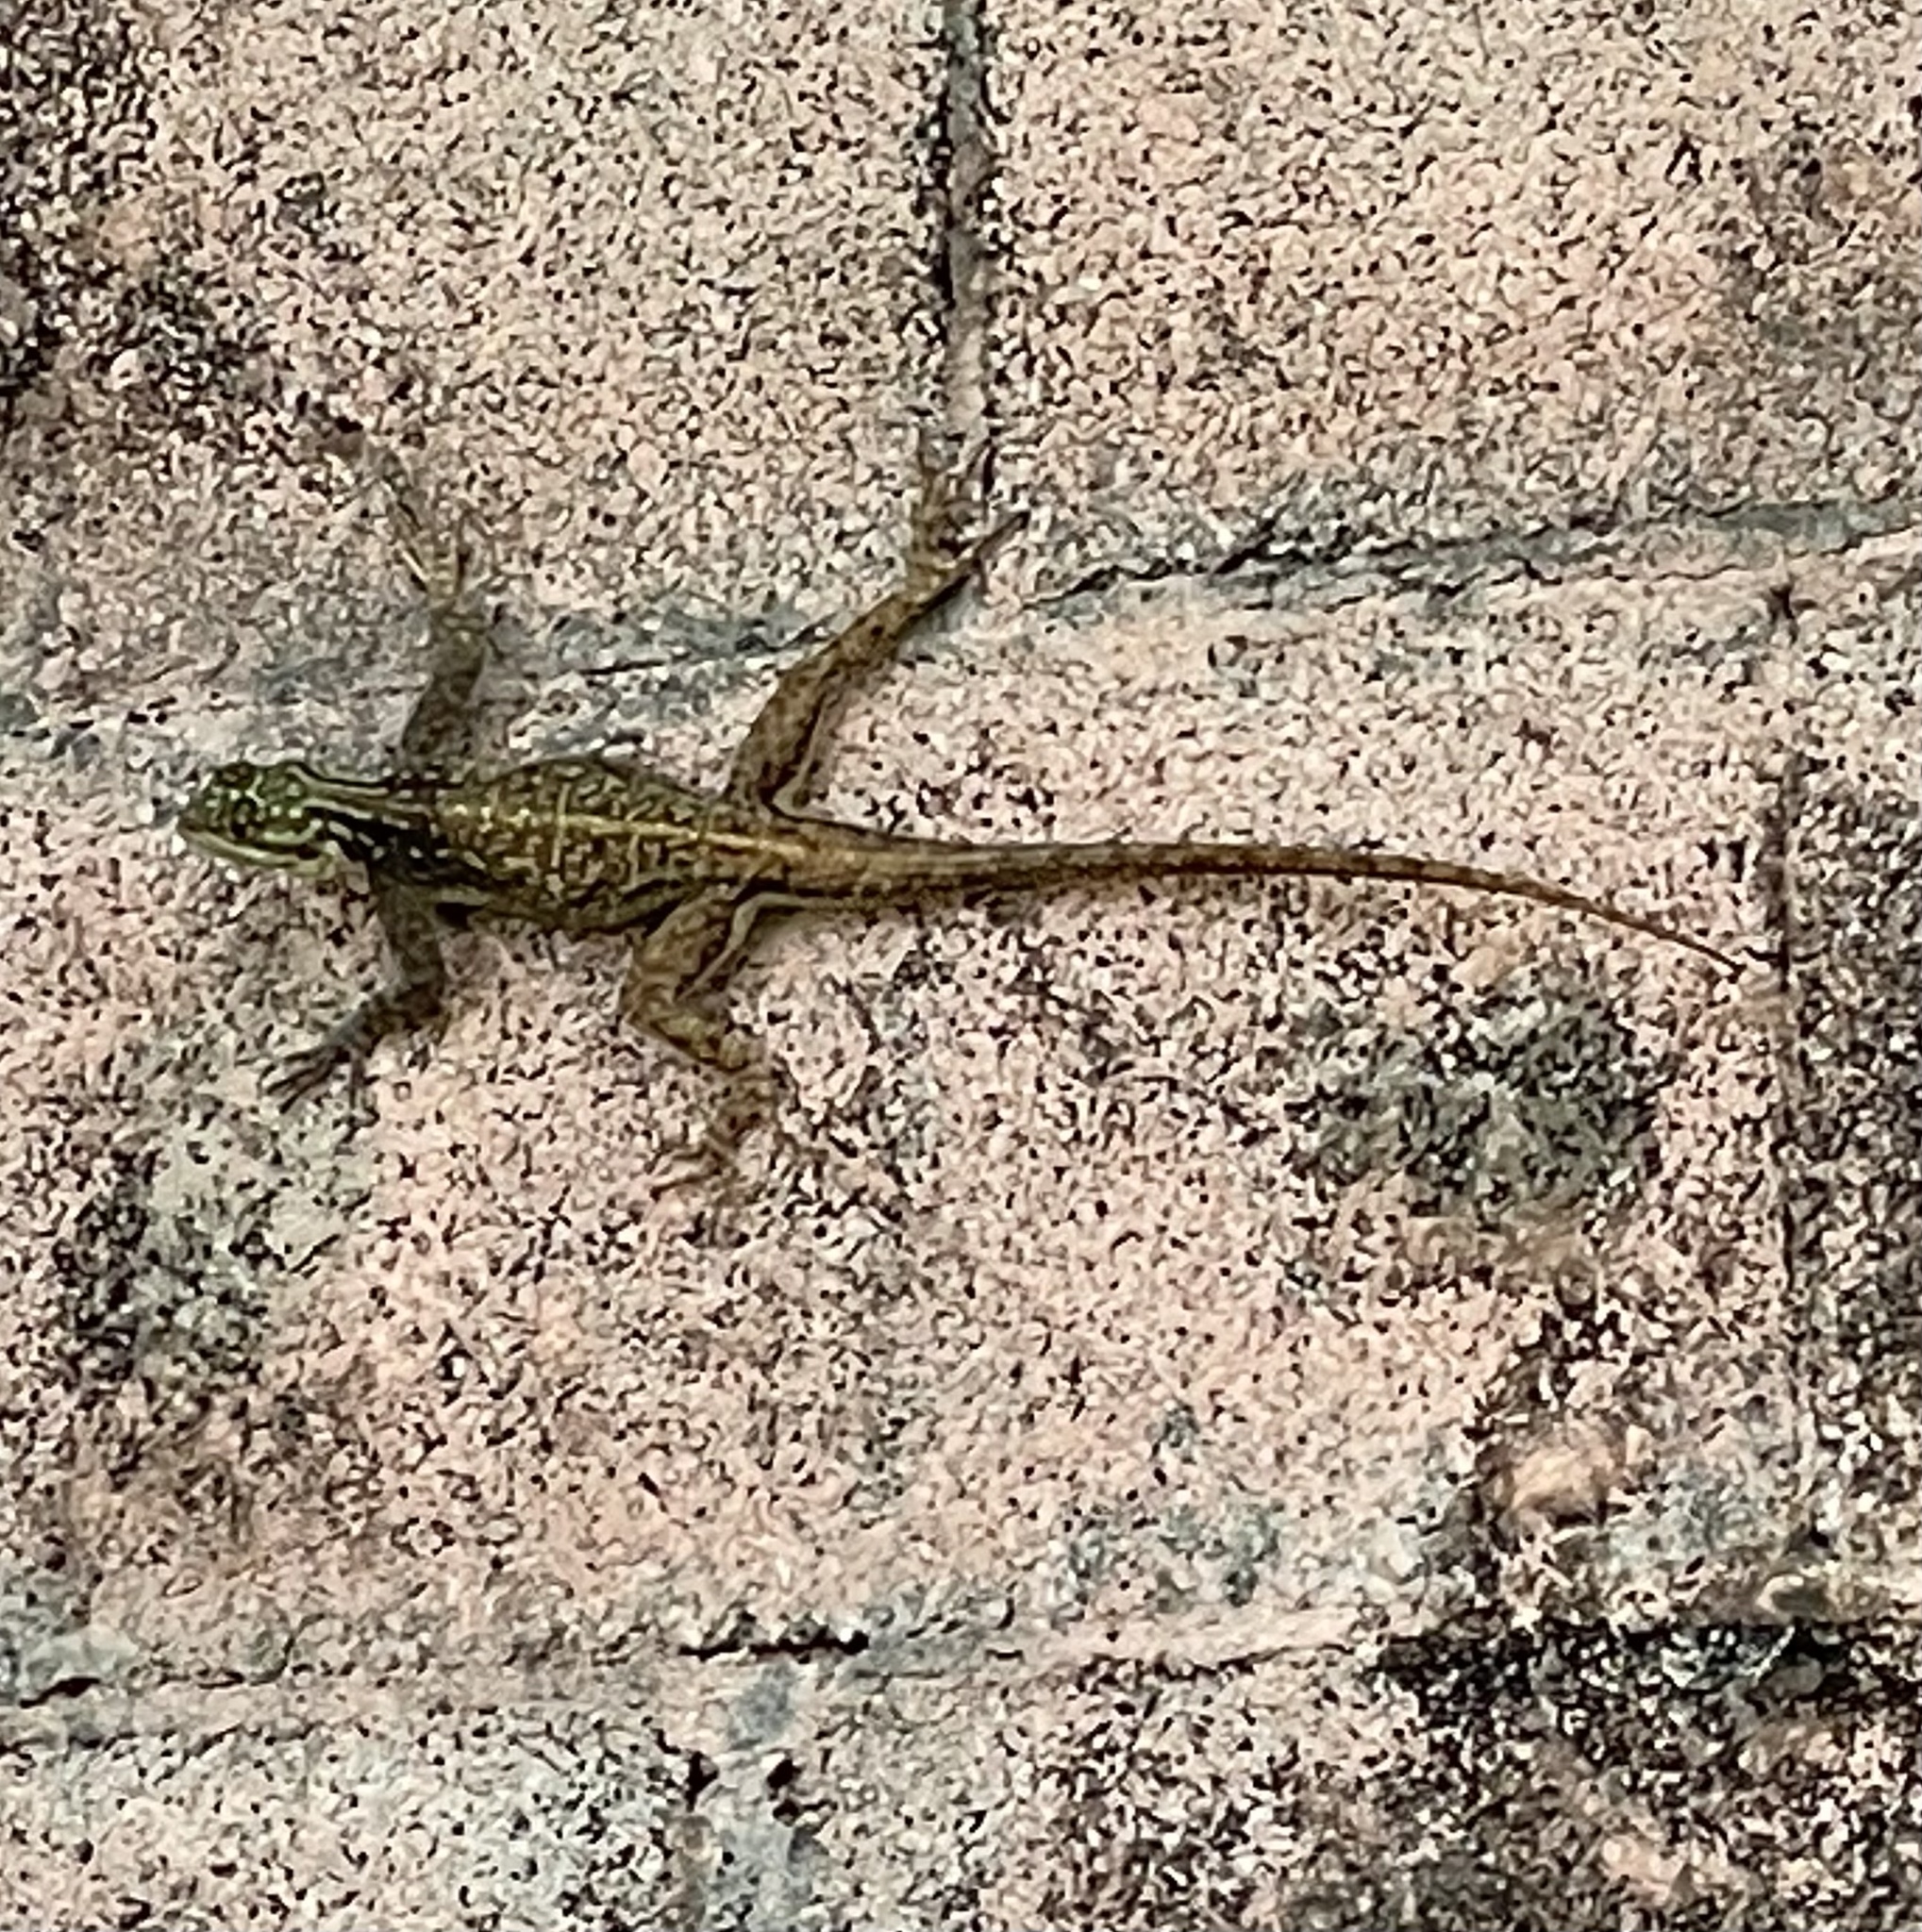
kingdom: Animalia
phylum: Chordata
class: Squamata
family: Agamidae
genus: Agama
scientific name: Agama picticauda
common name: Red-headed agama
